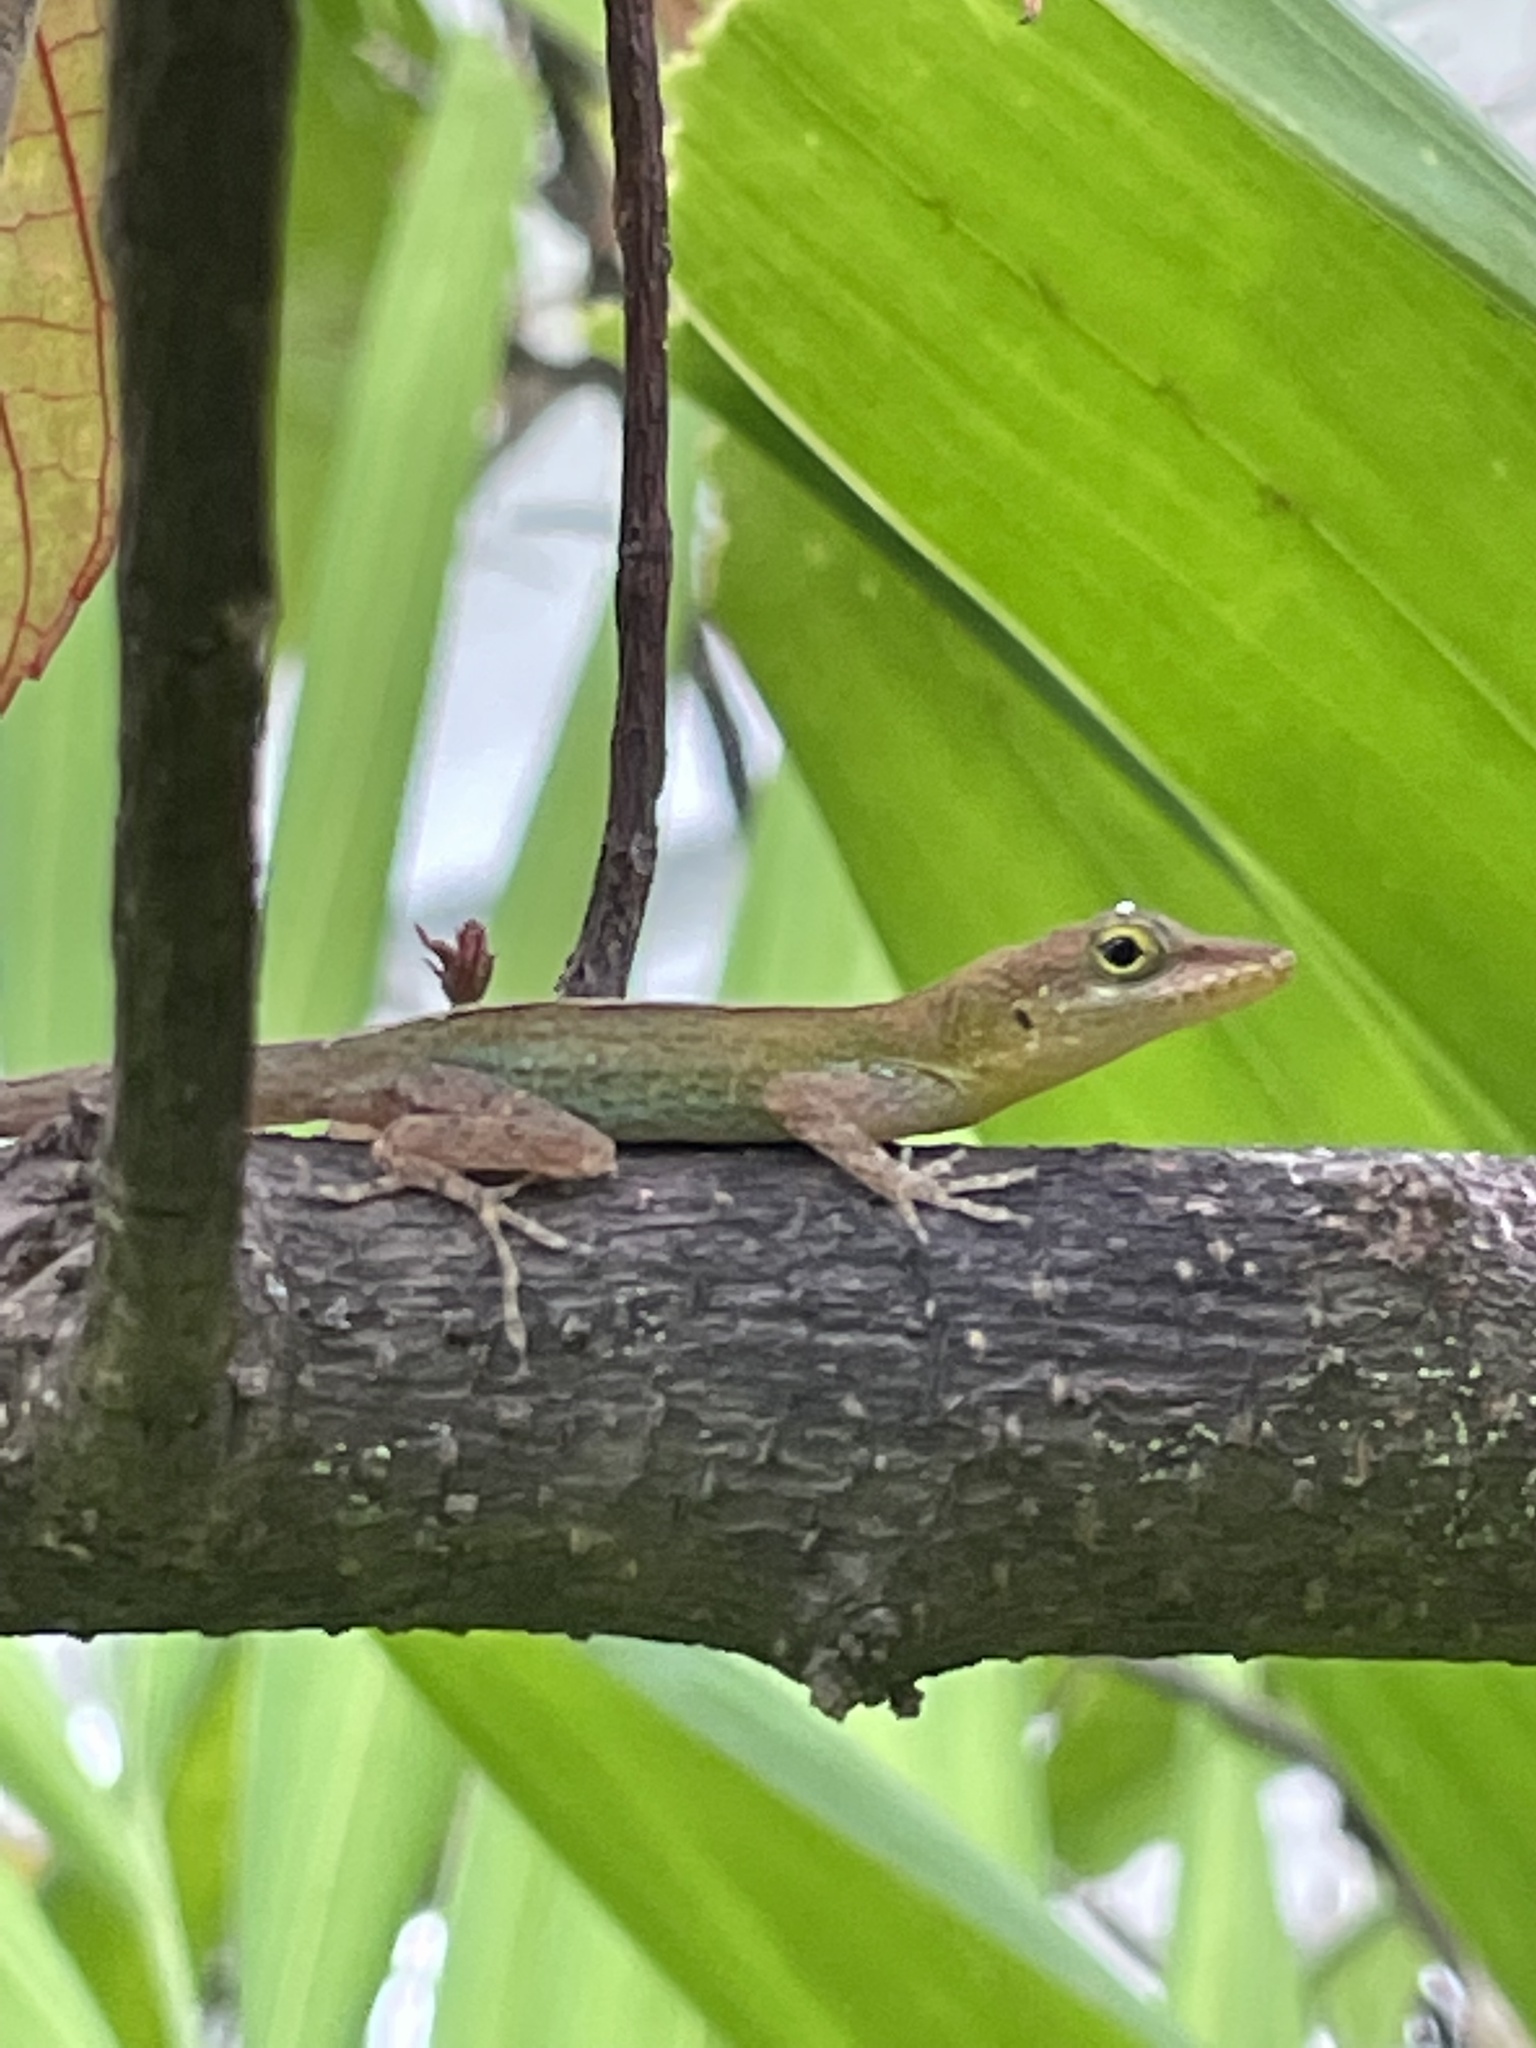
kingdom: Animalia
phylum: Chordata
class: Squamata
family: Dactyloidae
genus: Anolis
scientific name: Anolis lividus
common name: Montserrat anole
